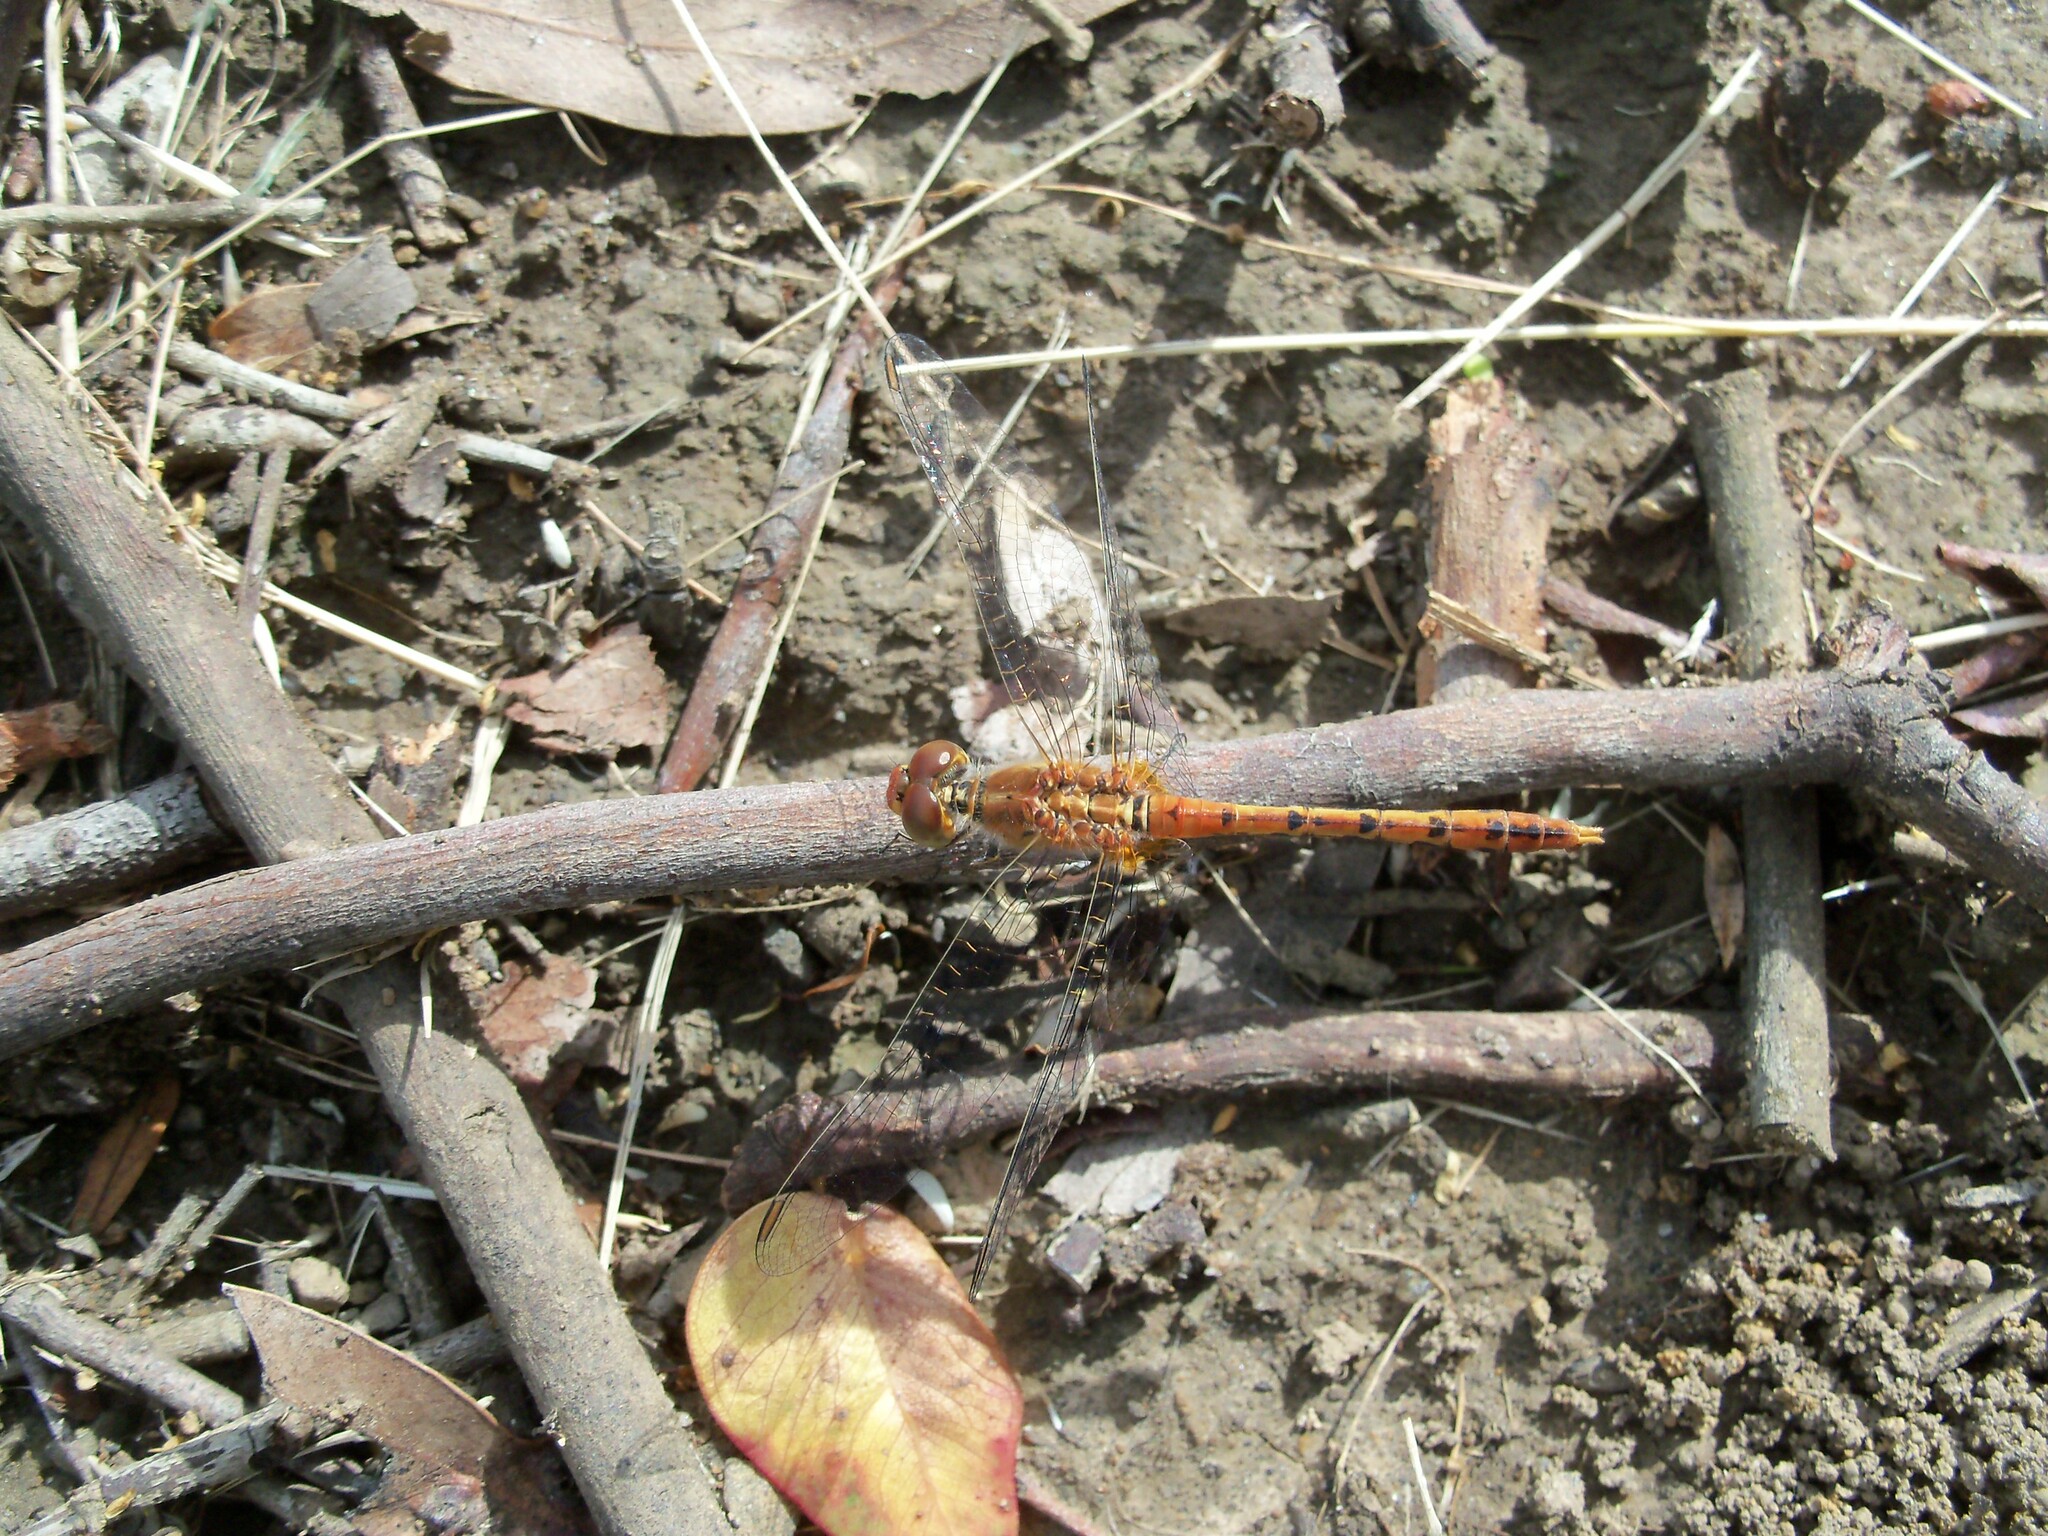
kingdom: Animalia
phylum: Arthropoda
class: Insecta
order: Odonata
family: Libellulidae
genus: Diplacodes
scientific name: Diplacodes bipunctata
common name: Red percher dragonfly
